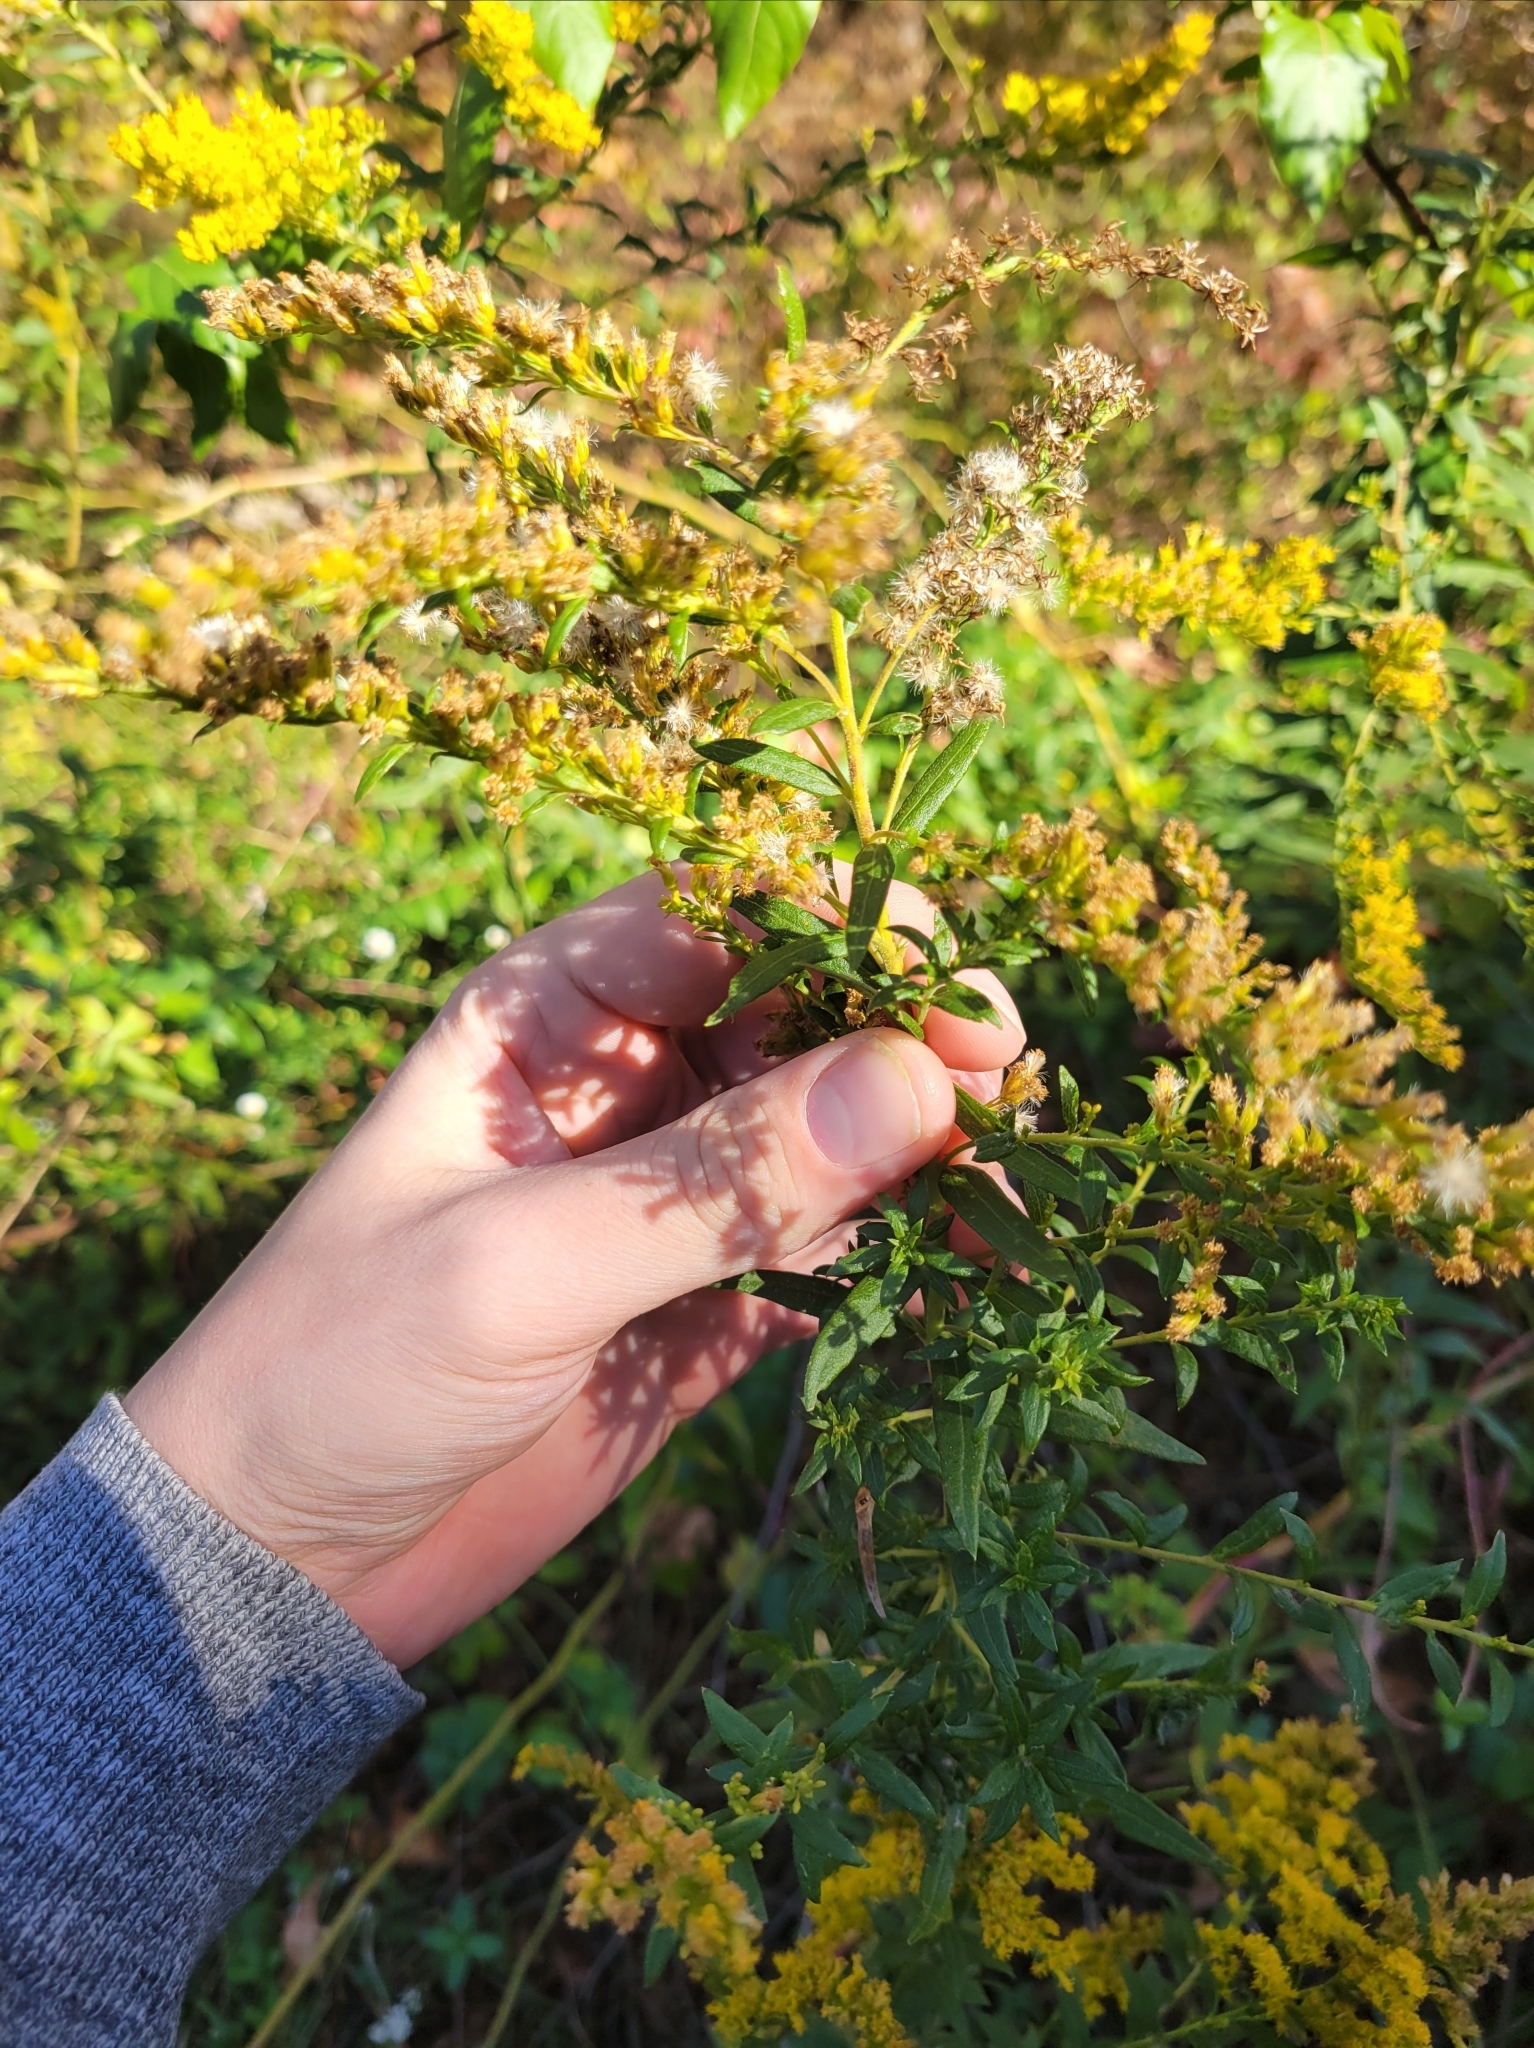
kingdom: Animalia
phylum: Arthropoda
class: Insecta
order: Diptera
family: Cecidomyiidae
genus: Asphondylia
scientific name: Asphondylia solidaginis
